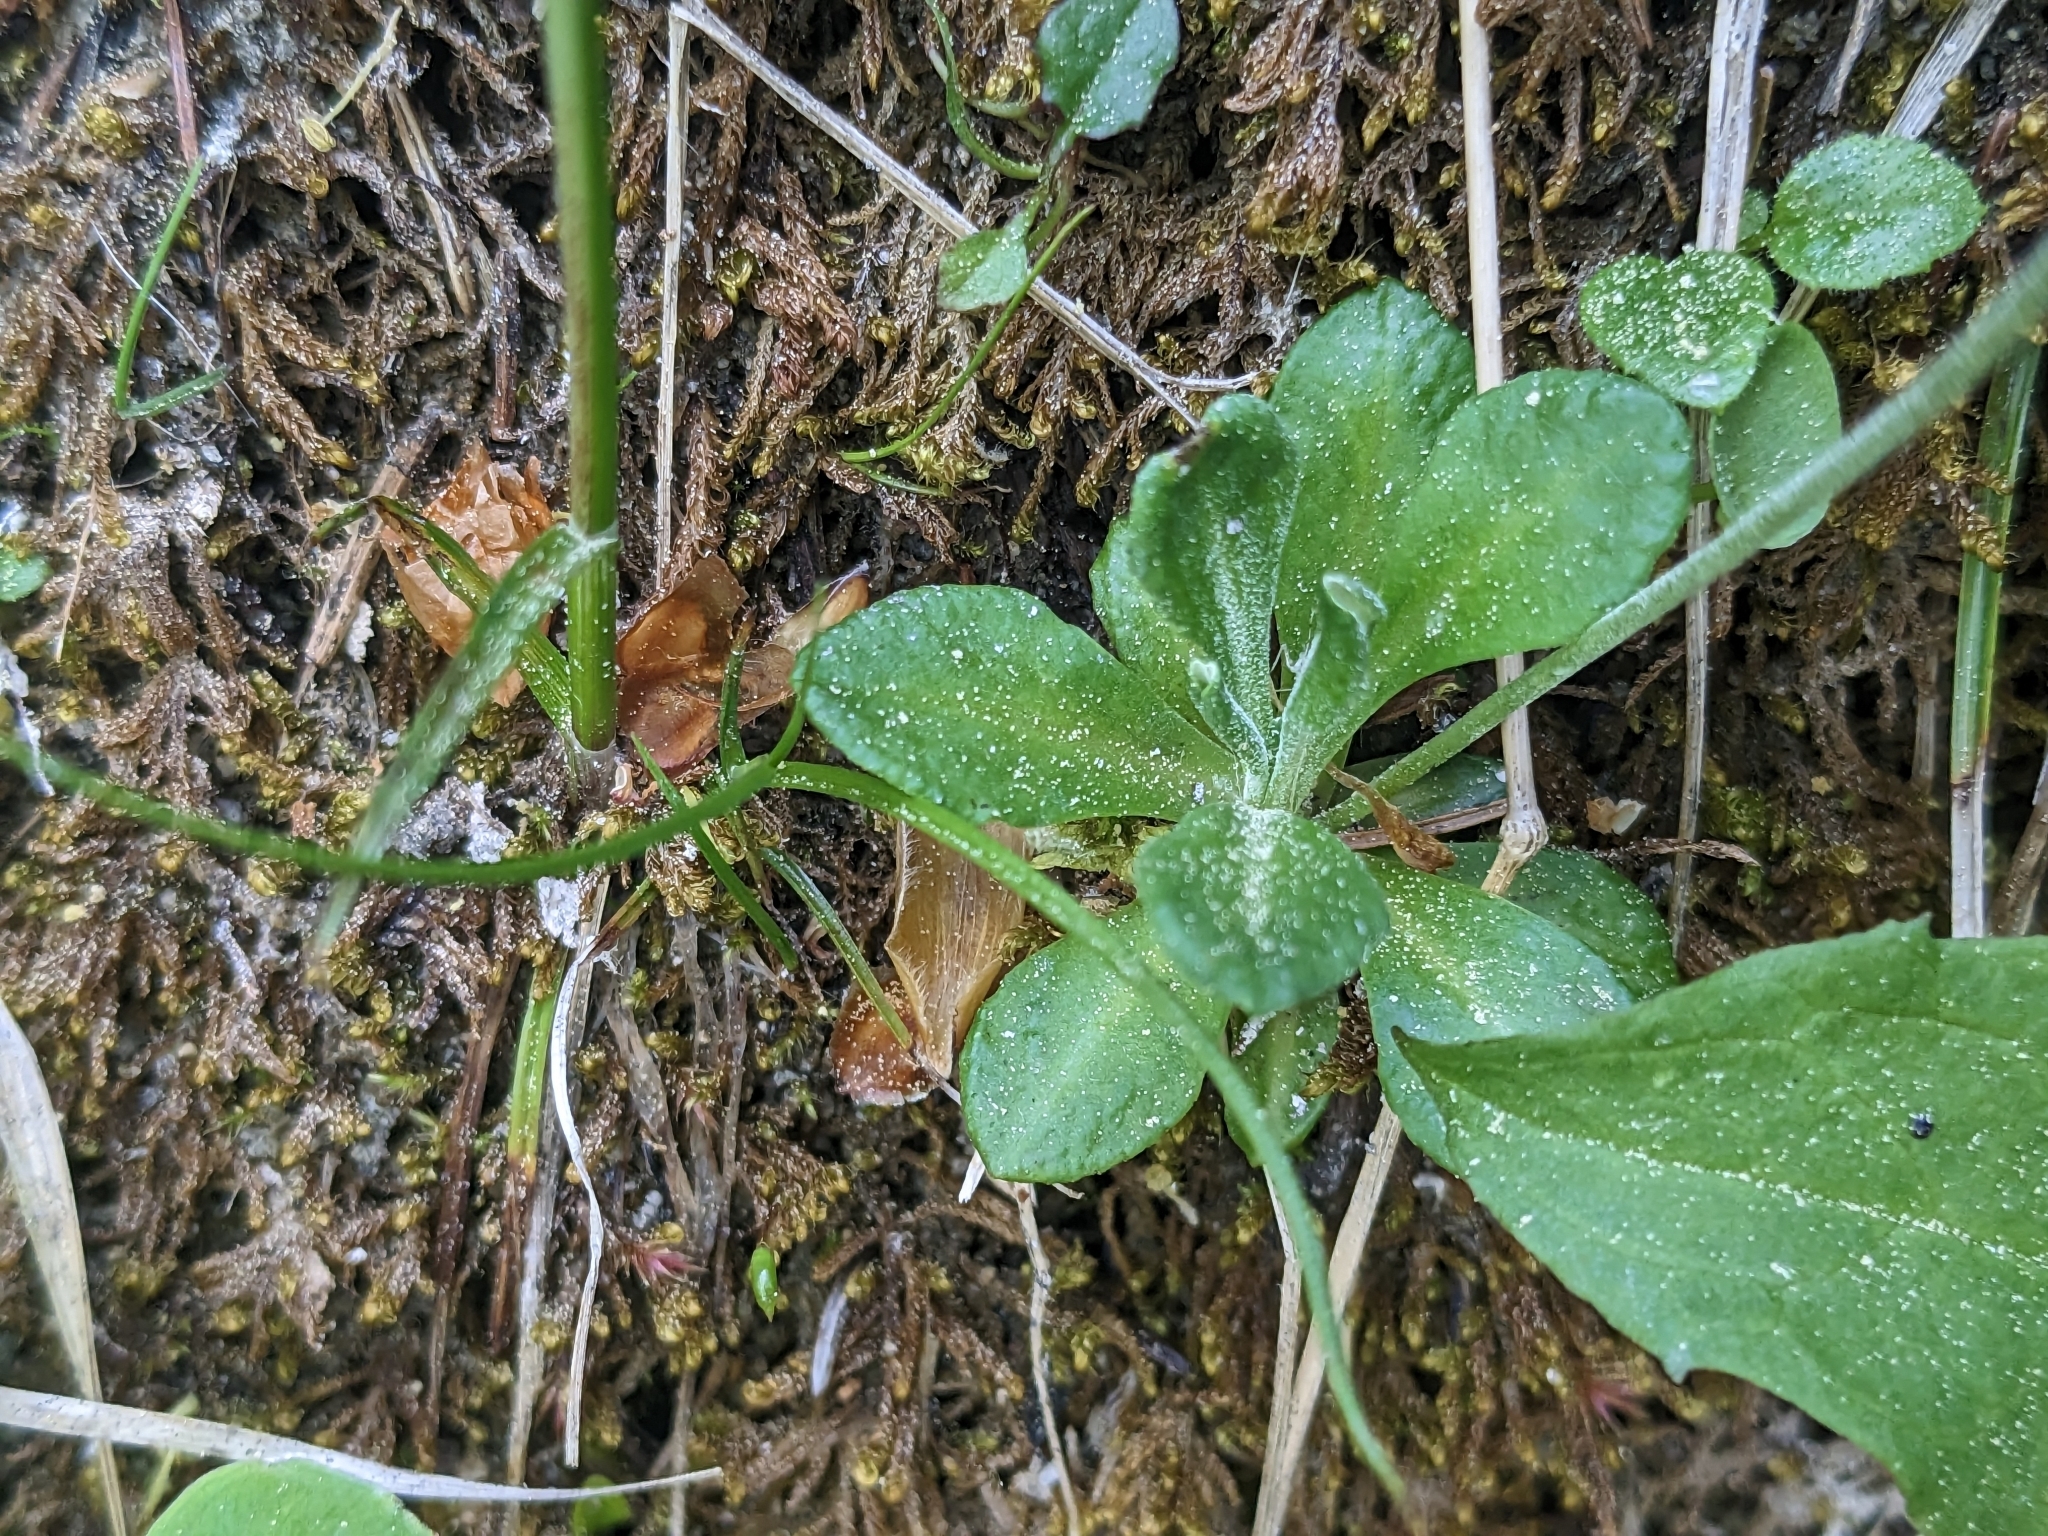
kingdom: Plantae
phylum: Tracheophyta
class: Magnoliopsida
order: Ericales
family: Primulaceae
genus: Primula
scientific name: Primula farinosa
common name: Bird's-eye primrose
